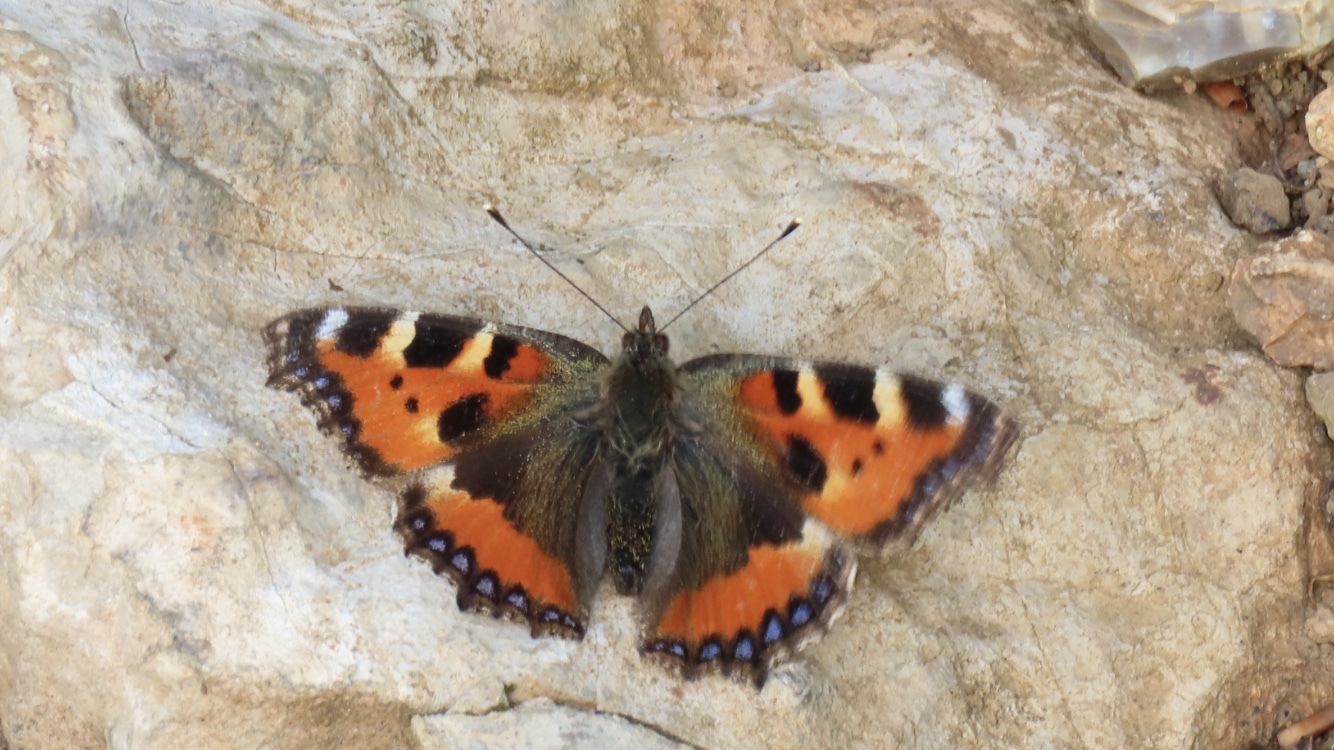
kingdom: Animalia
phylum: Arthropoda
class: Insecta
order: Lepidoptera
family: Nymphalidae
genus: Aglais
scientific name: Aglais urticae
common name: Small tortoiseshell
